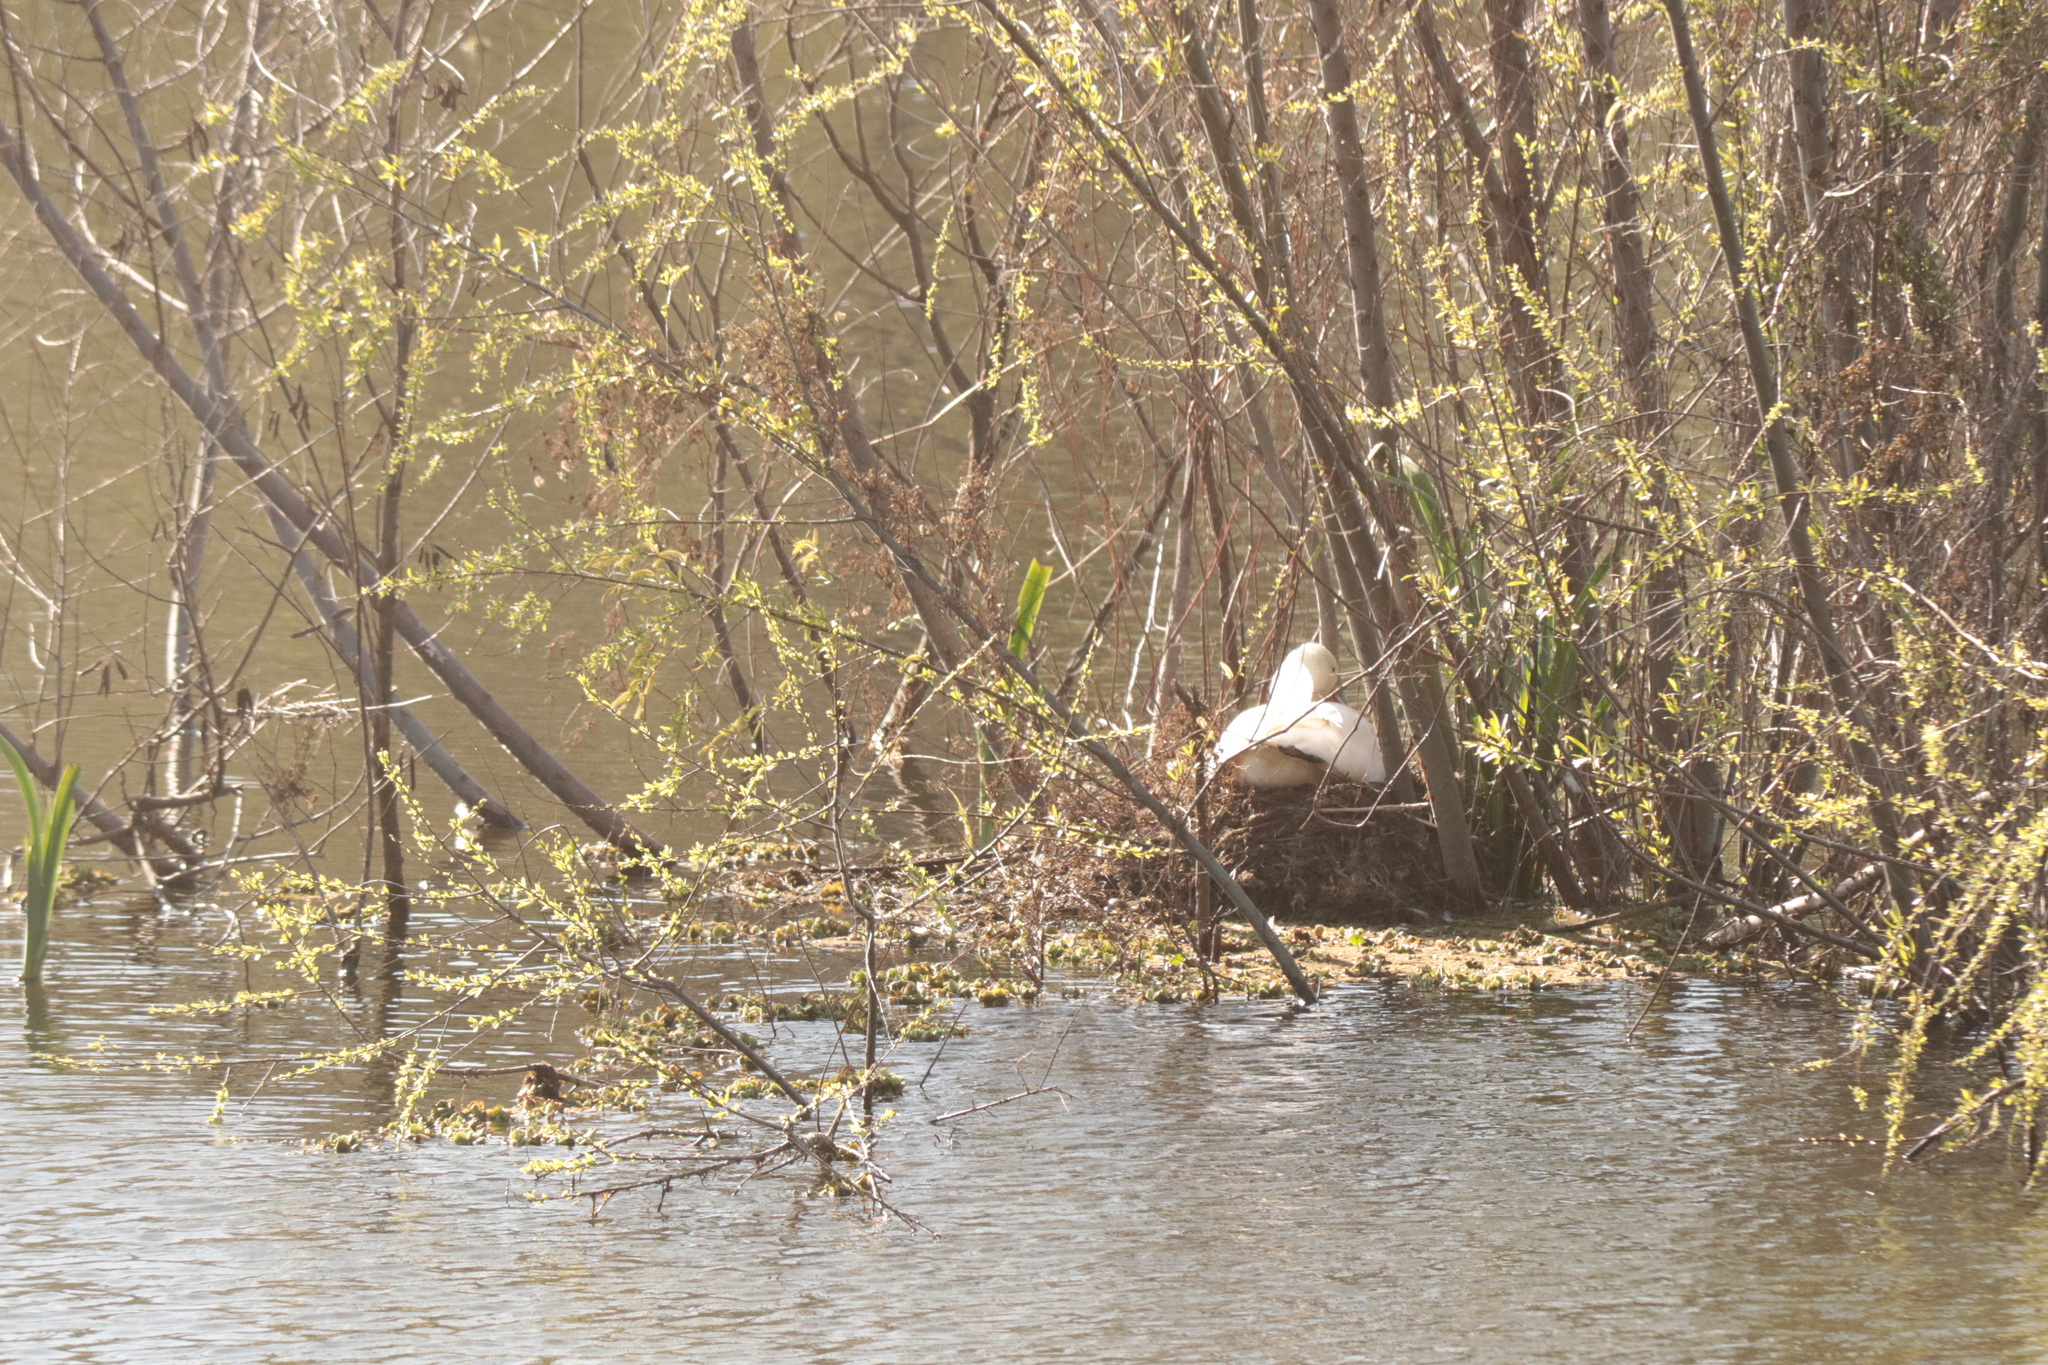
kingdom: Animalia
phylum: Chordata
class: Aves
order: Anseriformes
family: Anatidae
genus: Coscoroba
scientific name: Coscoroba coscoroba
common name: Coscoroba swan
